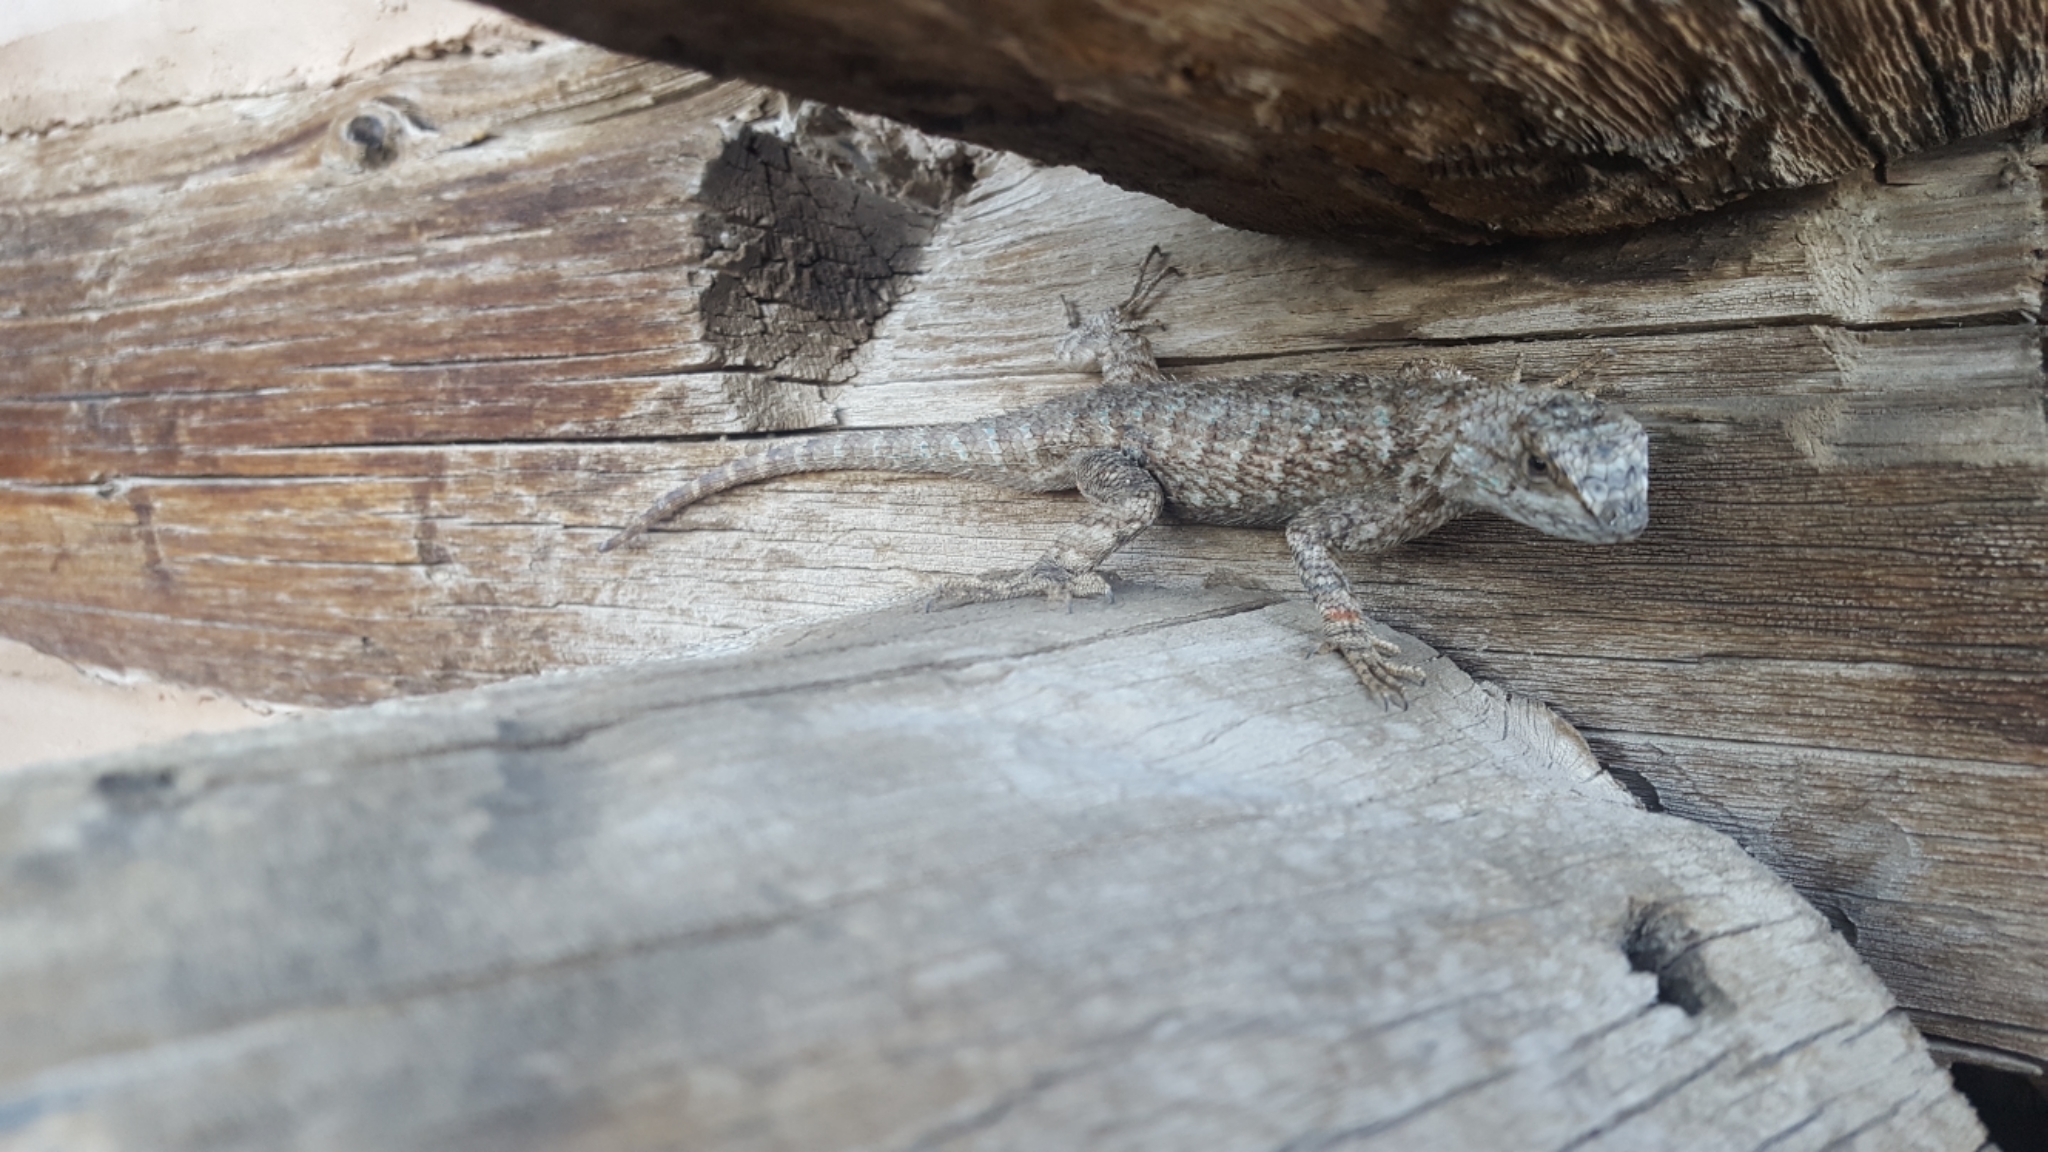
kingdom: Animalia
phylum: Chordata
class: Squamata
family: Phrynosomatidae
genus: Sceloporus
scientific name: Sceloporus occidentalis
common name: Western fence lizard
